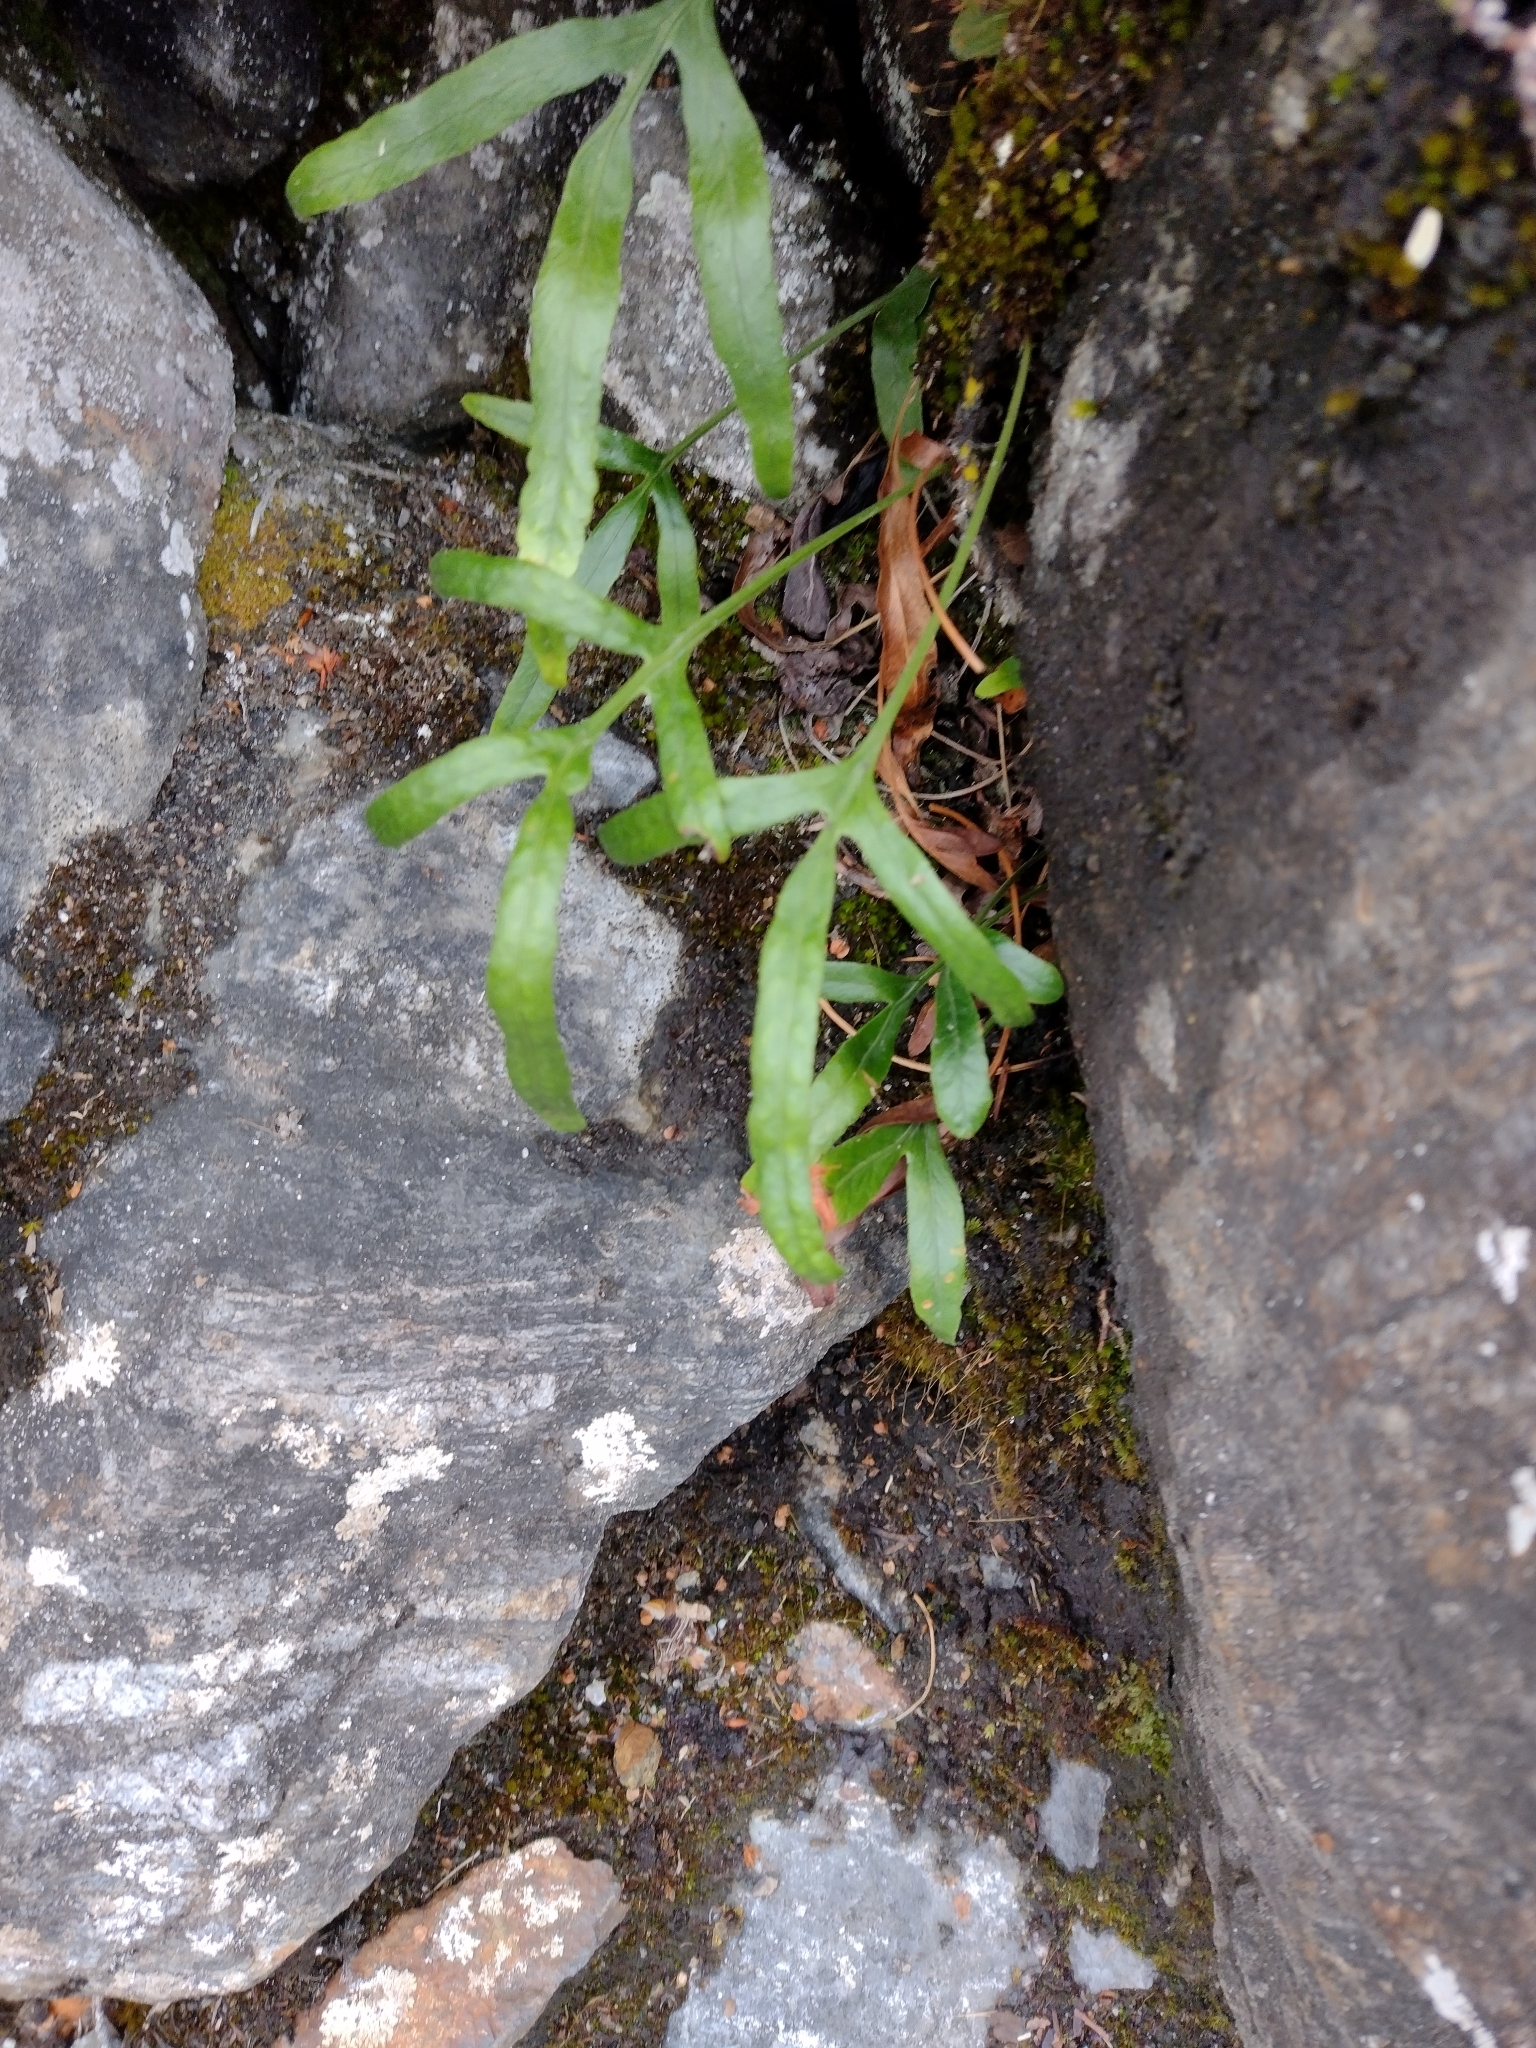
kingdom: Plantae
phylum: Tracheophyta
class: Polypodiopsida
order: Polypodiales
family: Polypodiaceae
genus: Synammia
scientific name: Synammia feuillei
